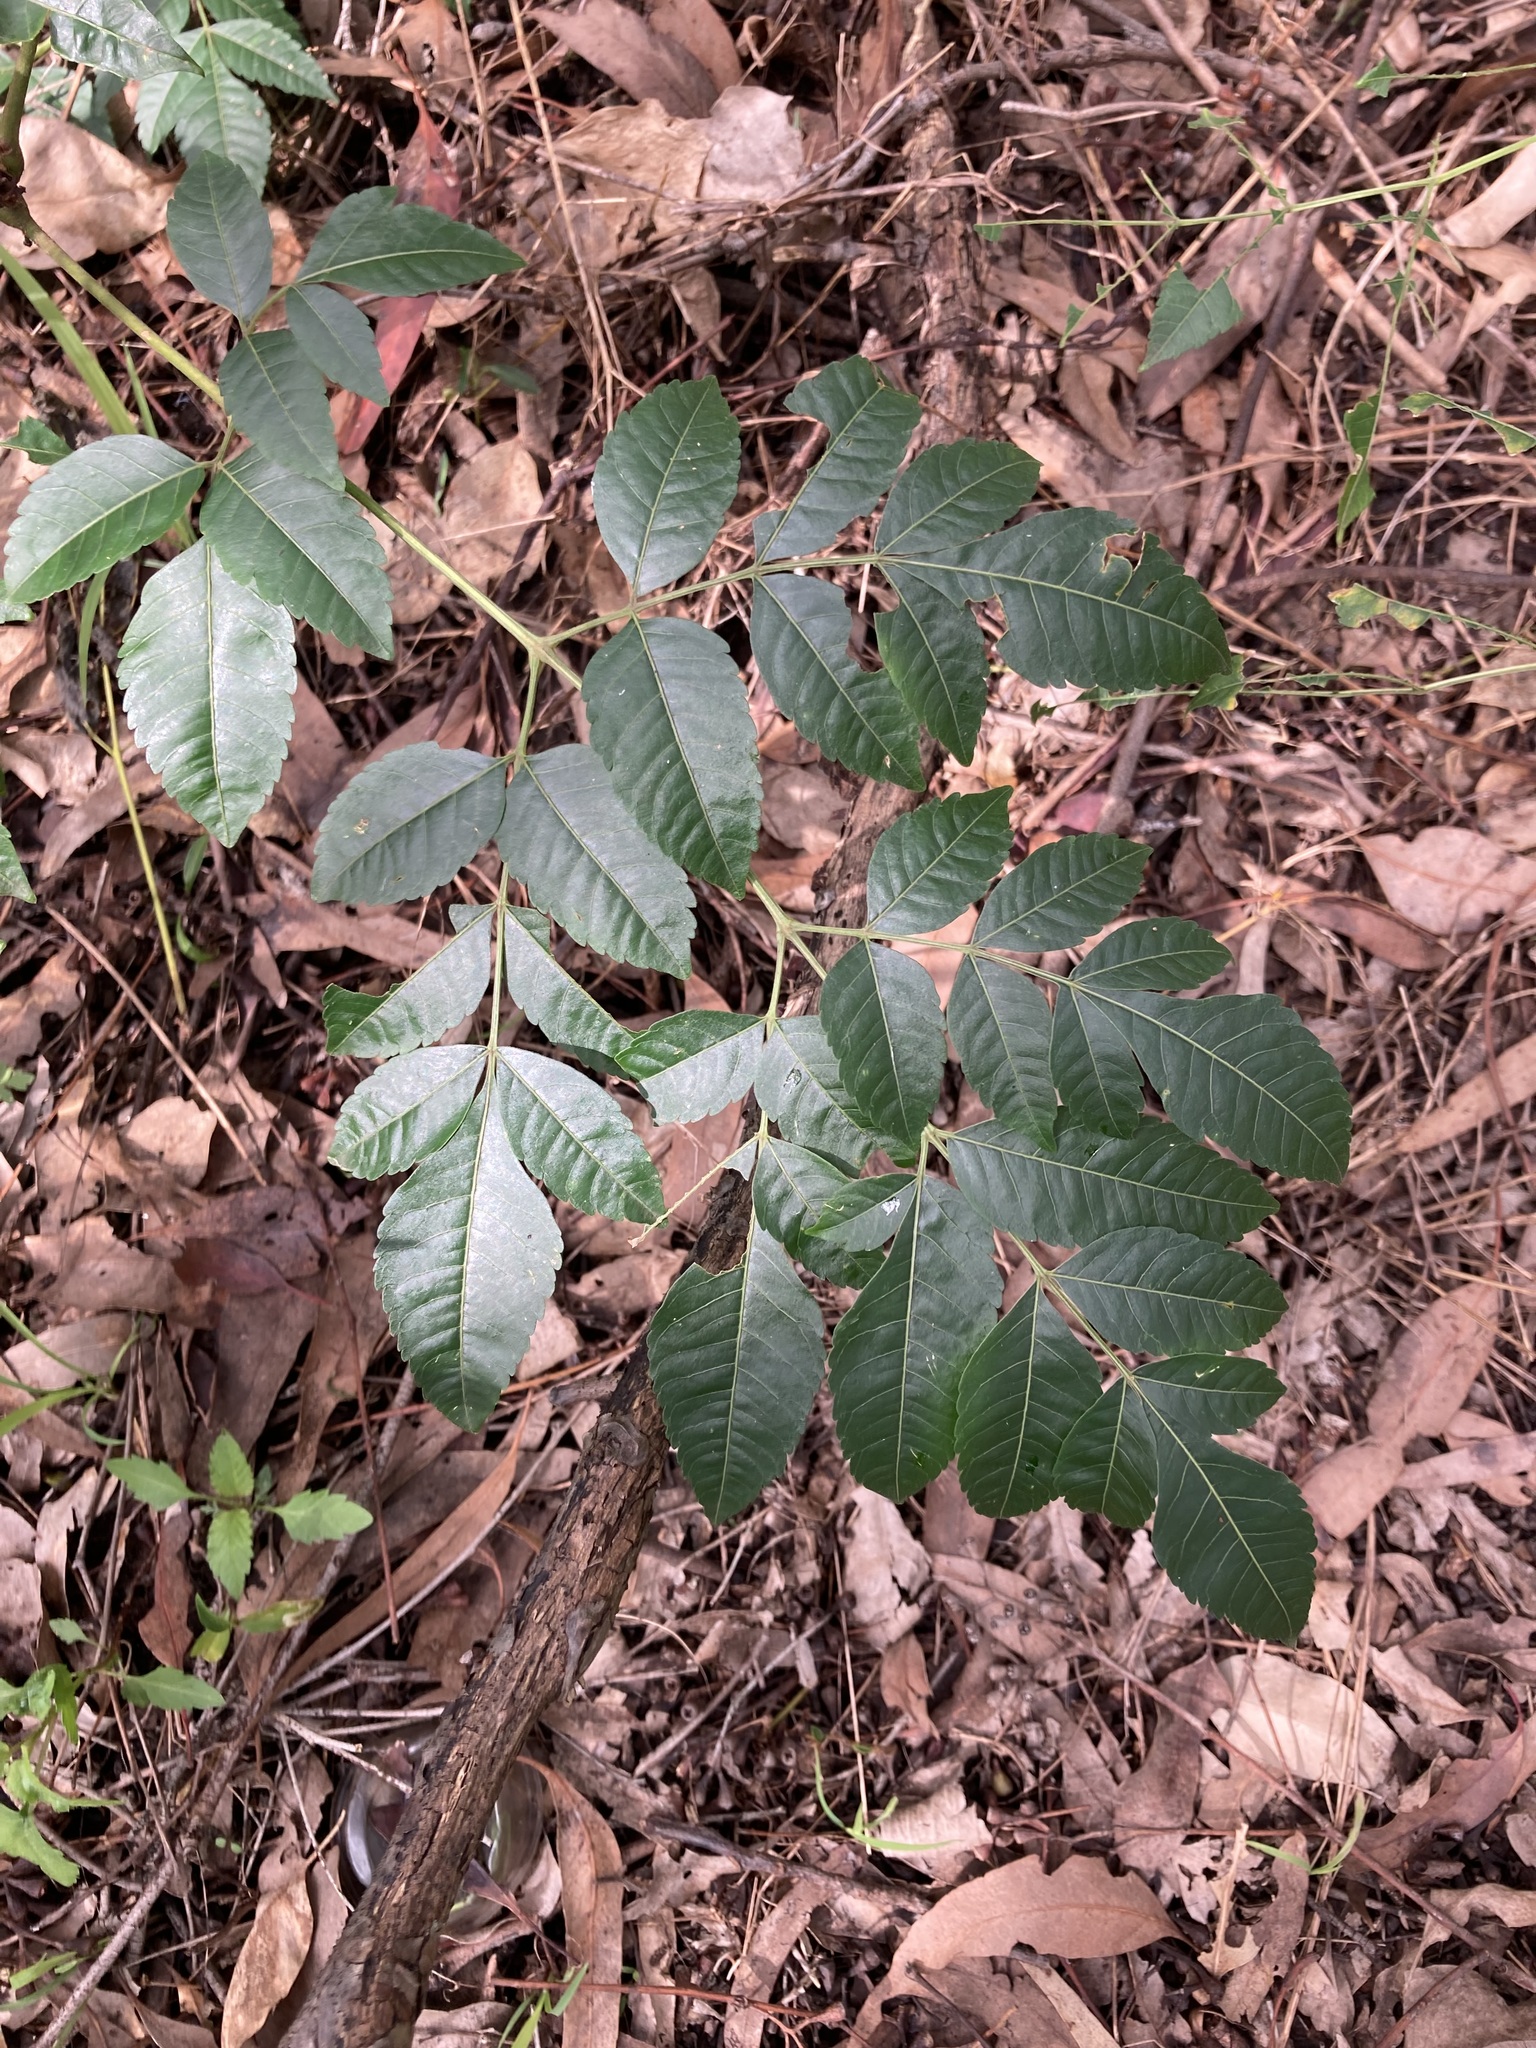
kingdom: Plantae
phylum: Tracheophyta
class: Magnoliopsida
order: Sapindales
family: Meliaceae
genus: Melia
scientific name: Melia azedarach
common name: Chinaberrytree
